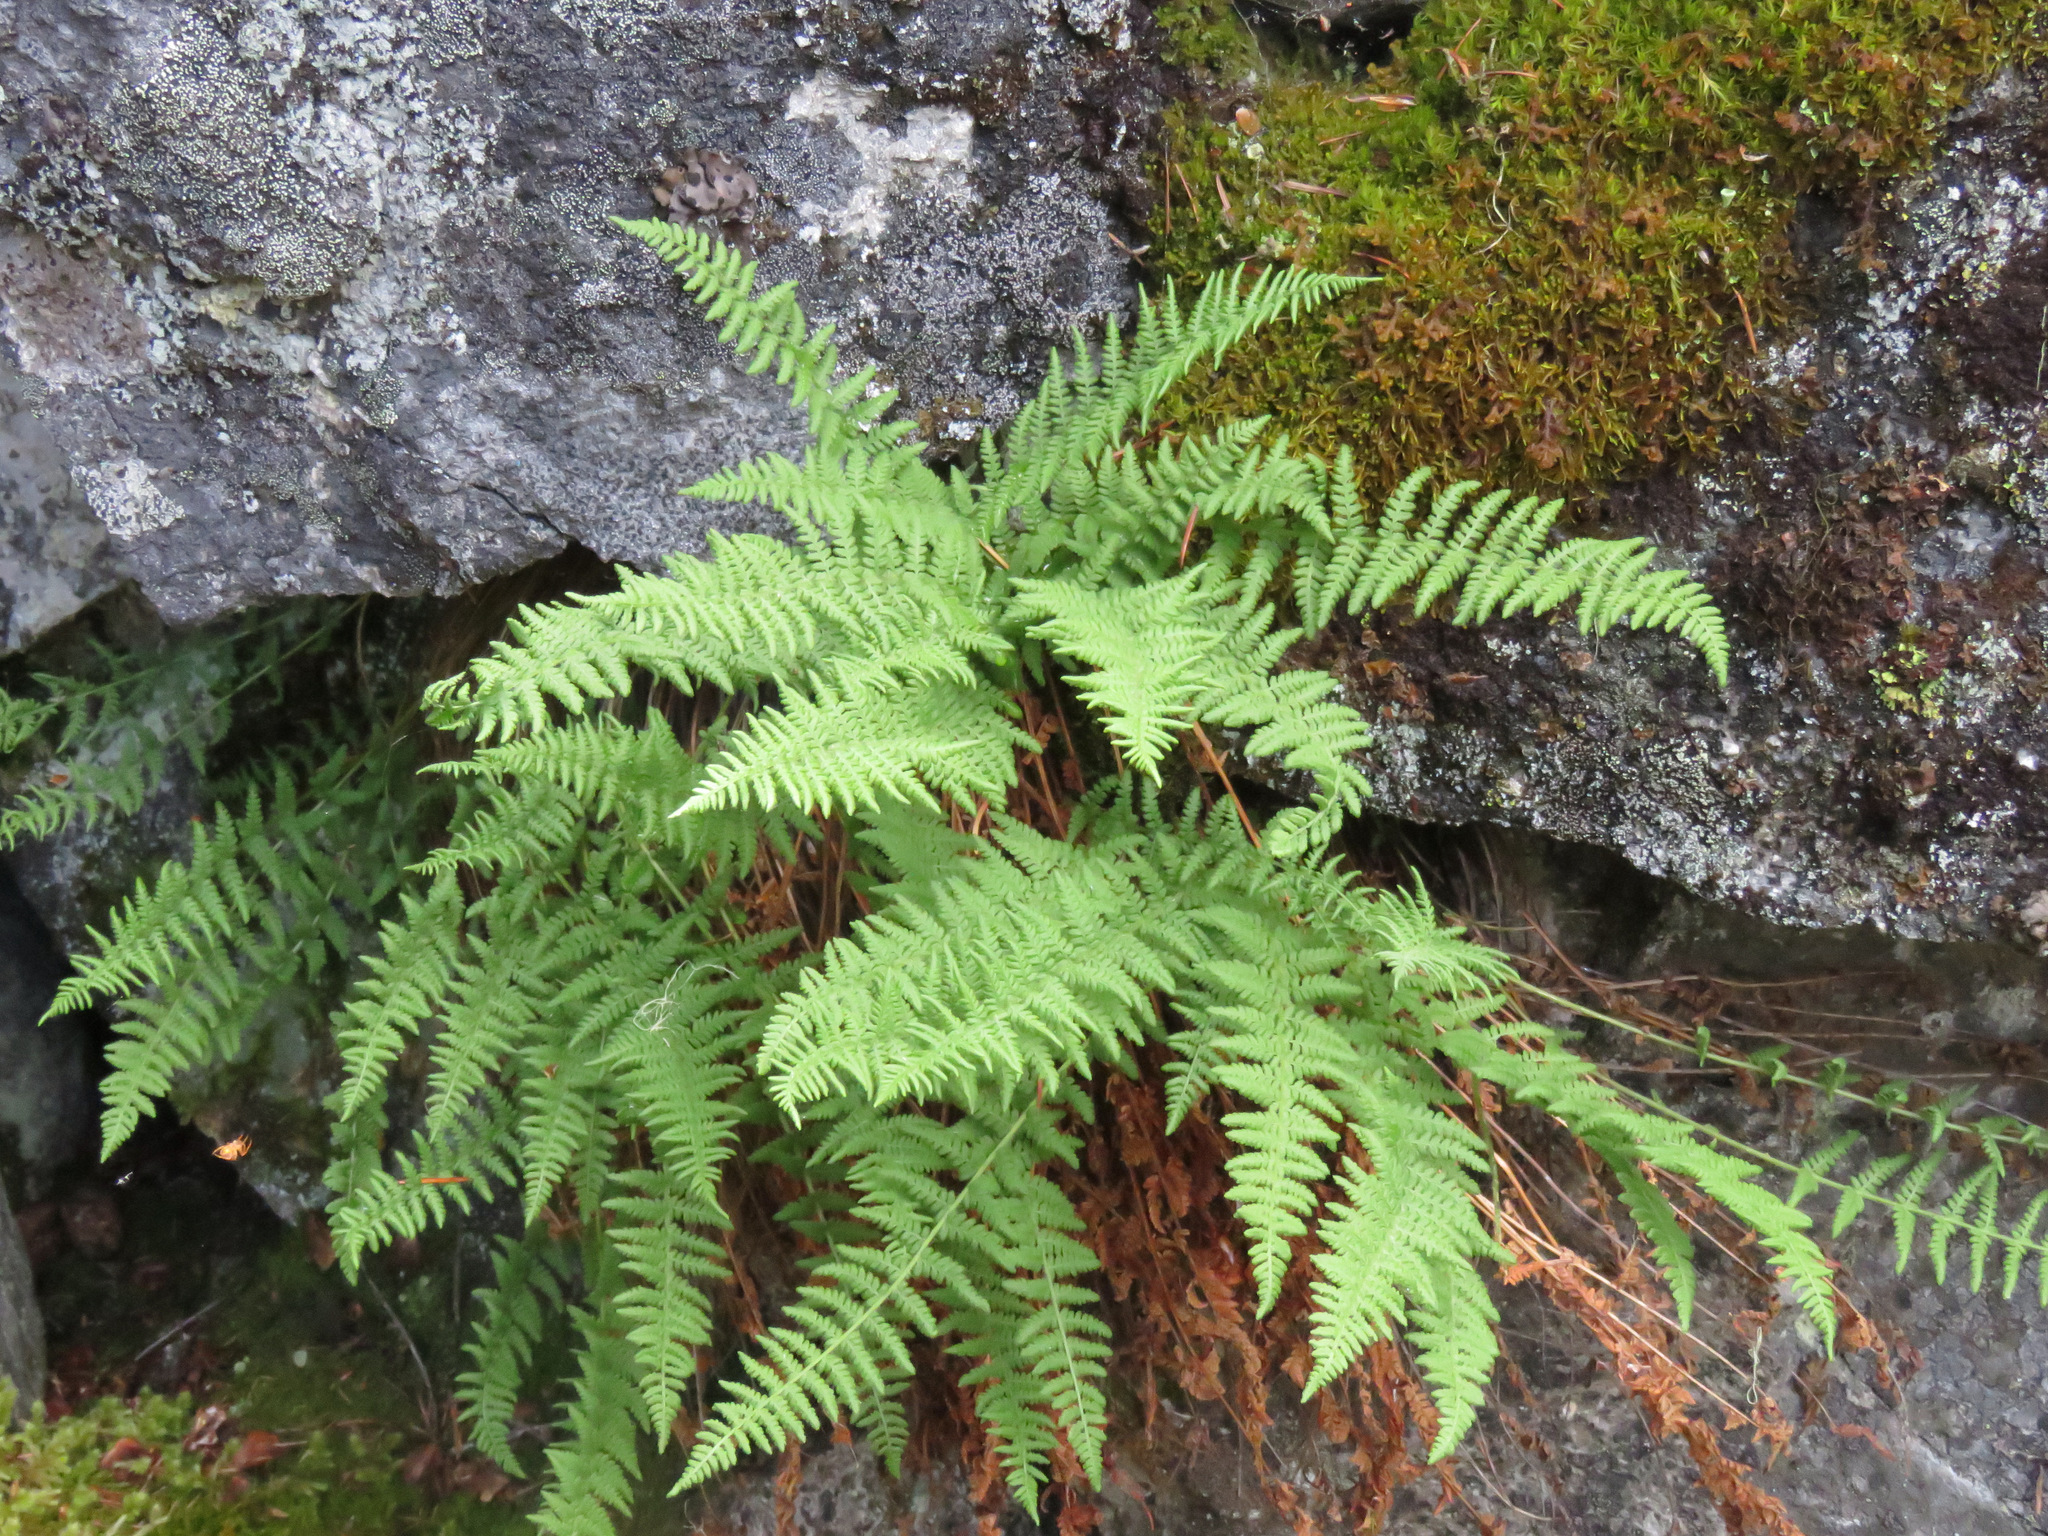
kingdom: Plantae
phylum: Tracheophyta
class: Polypodiopsida
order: Polypodiales
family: Woodsiaceae
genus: Physematium
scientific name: Physematium scopulinum
